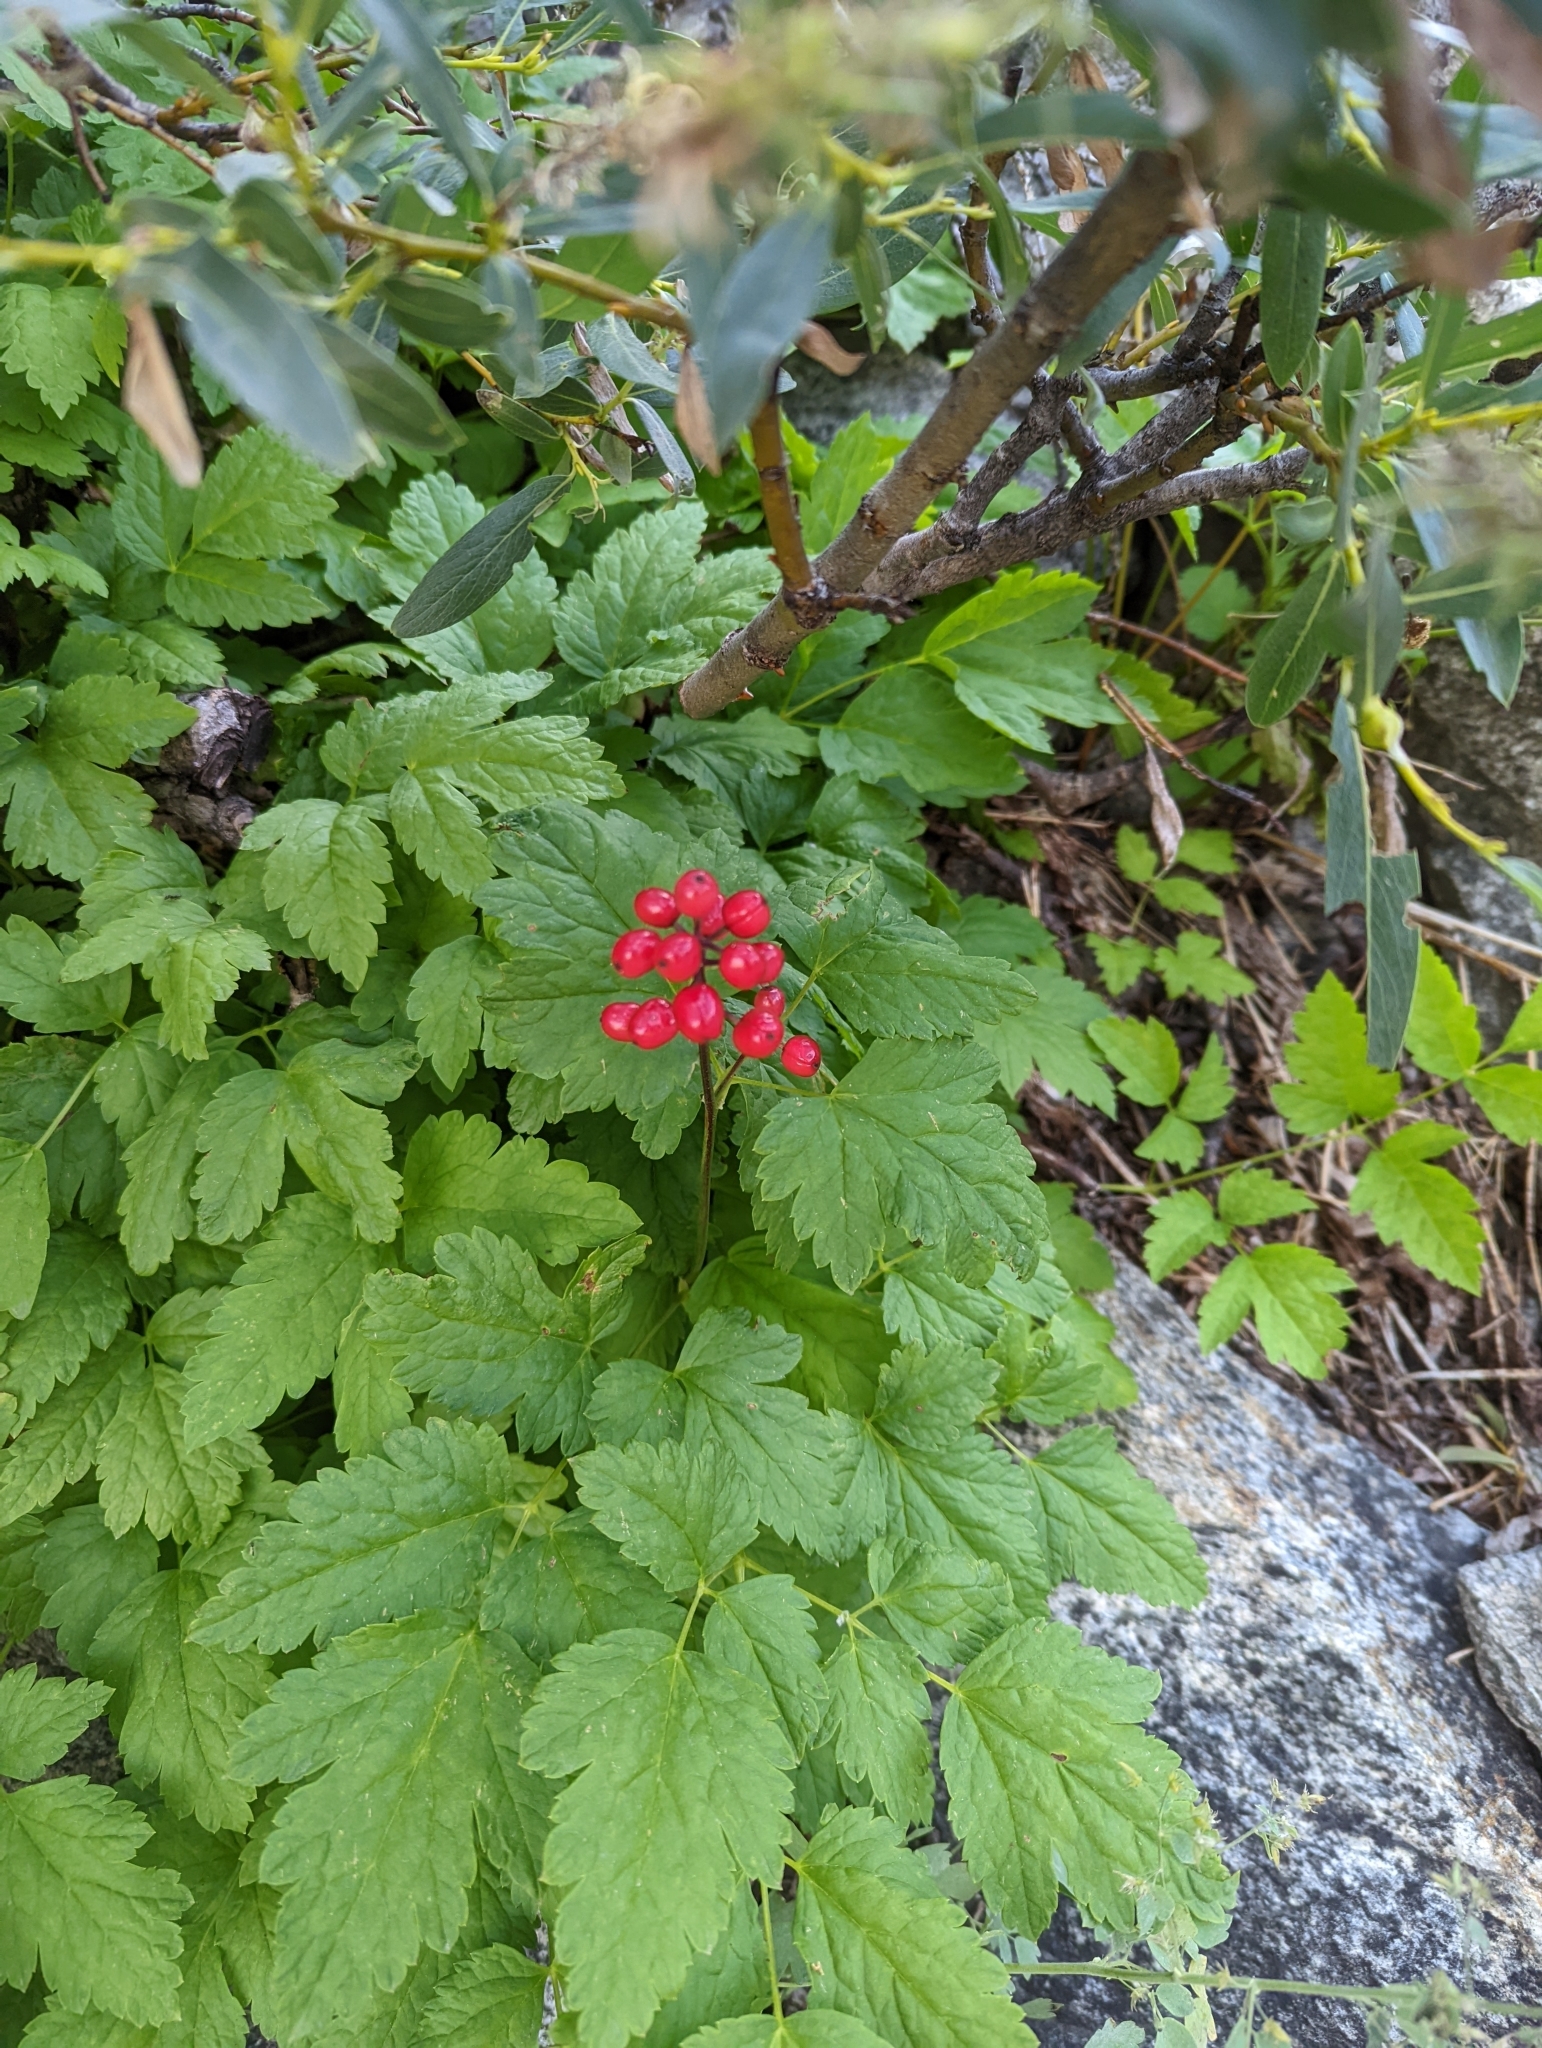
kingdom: Plantae
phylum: Tracheophyta
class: Magnoliopsida
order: Ranunculales
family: Ranunculaceae
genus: Actaea
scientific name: Actaea rubra
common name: Red baneberry
